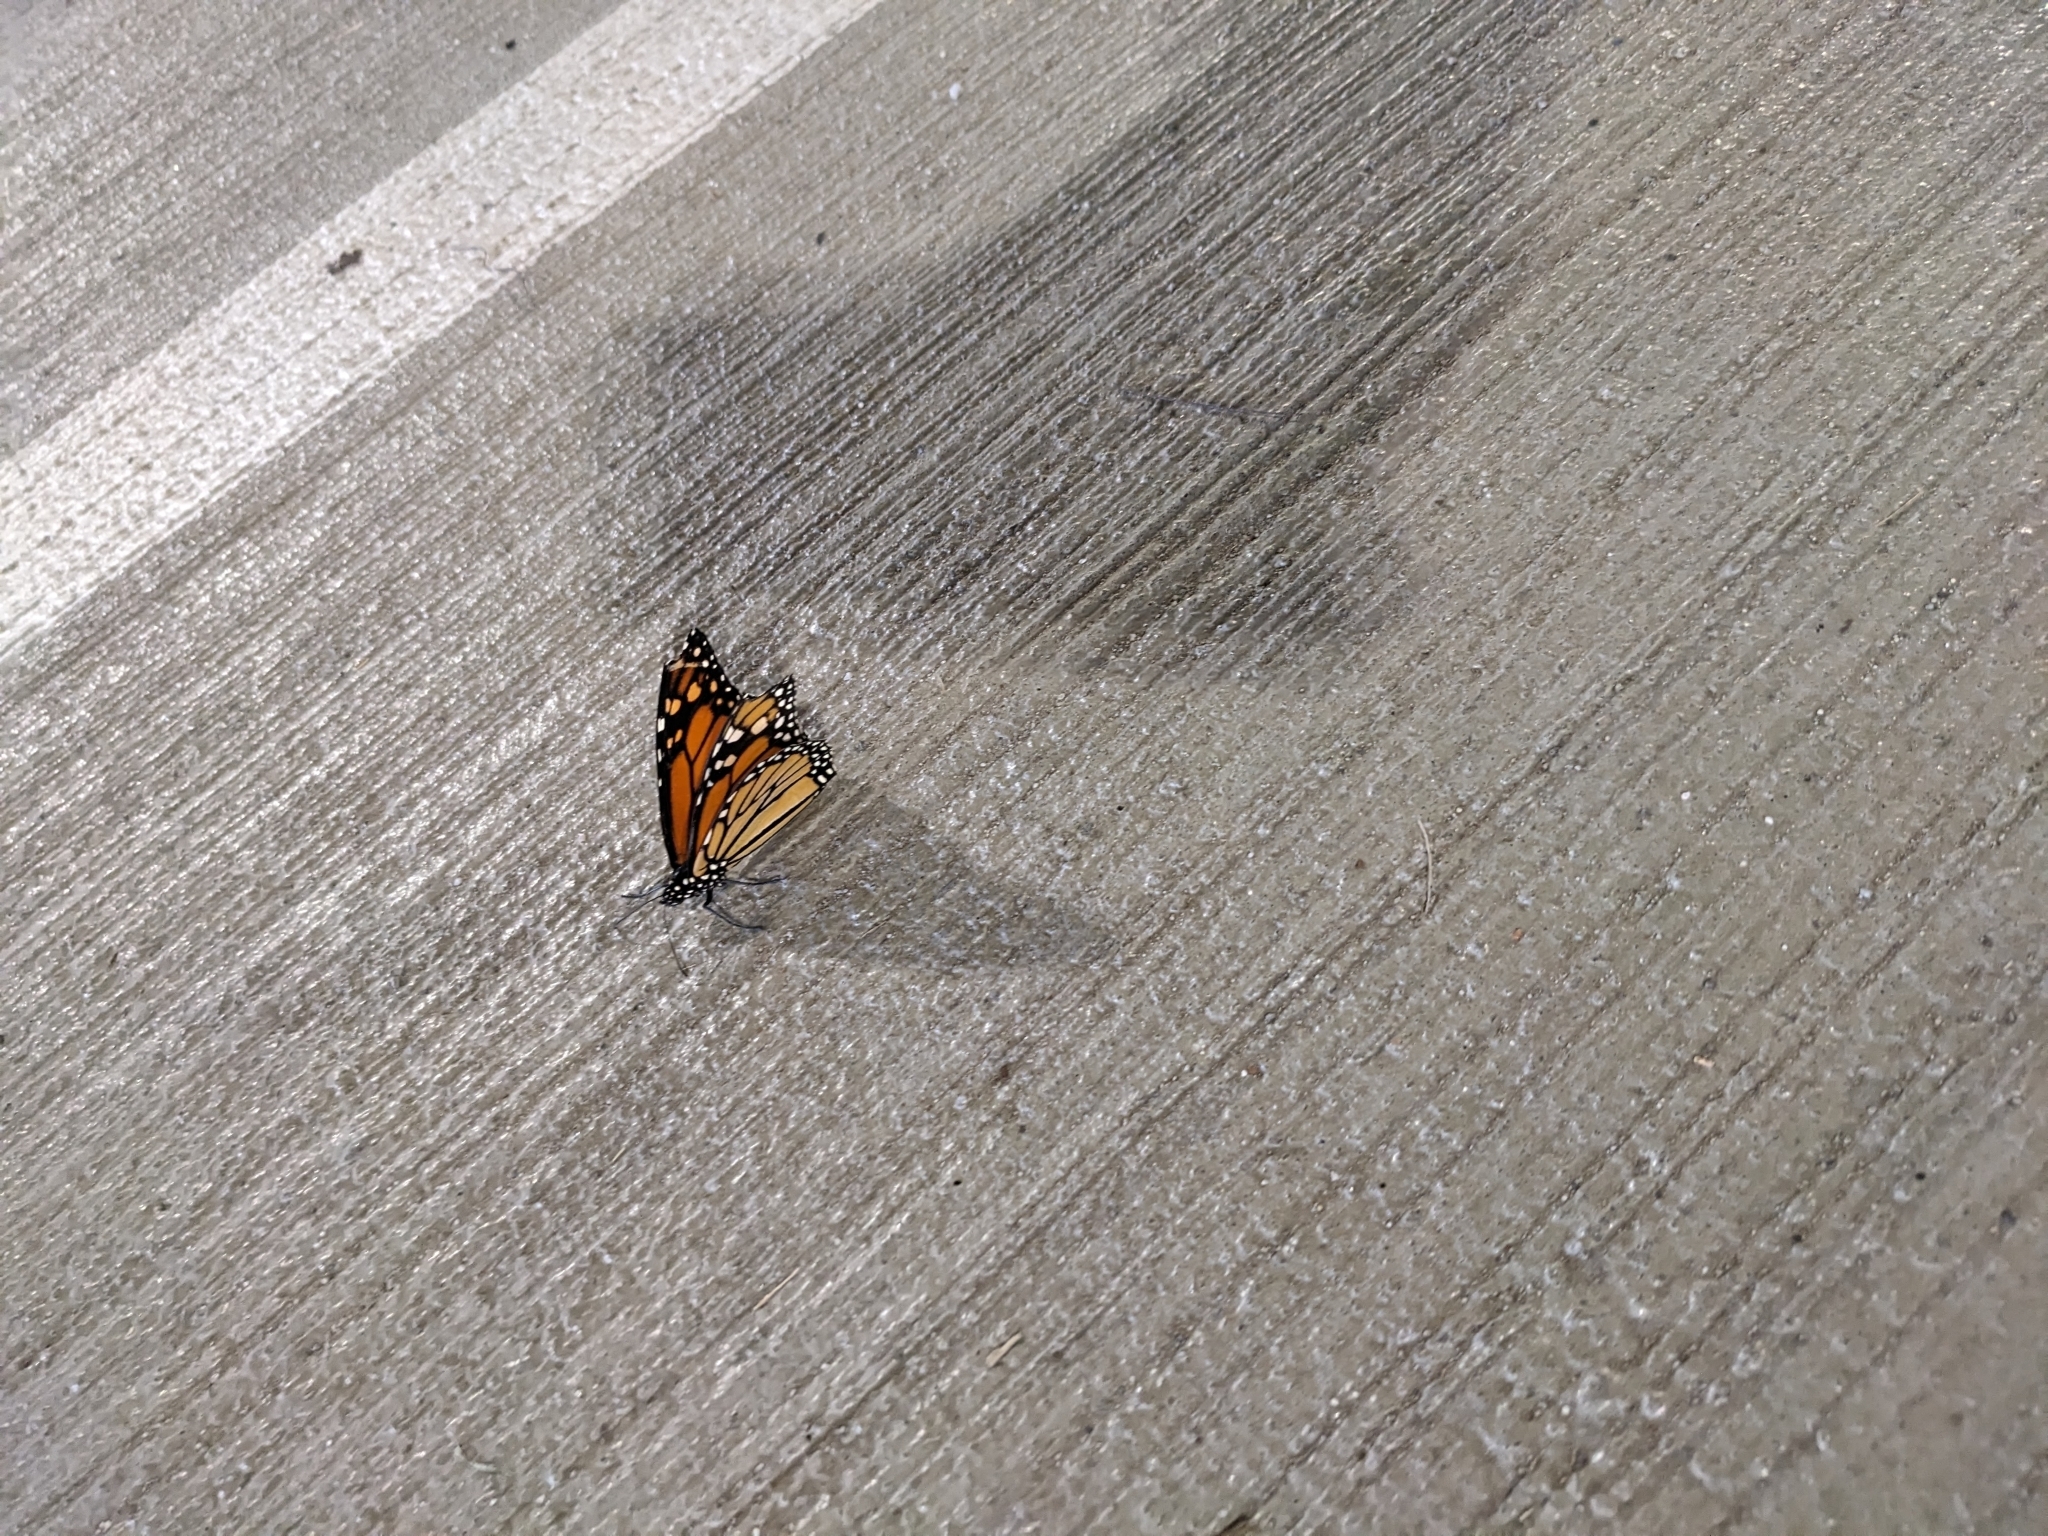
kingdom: Animalia
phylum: Arthropoda
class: Insecta
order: Lepidoptera
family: Nymphalidae
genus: Danaus
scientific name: Danaus plexippus
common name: Monarch
